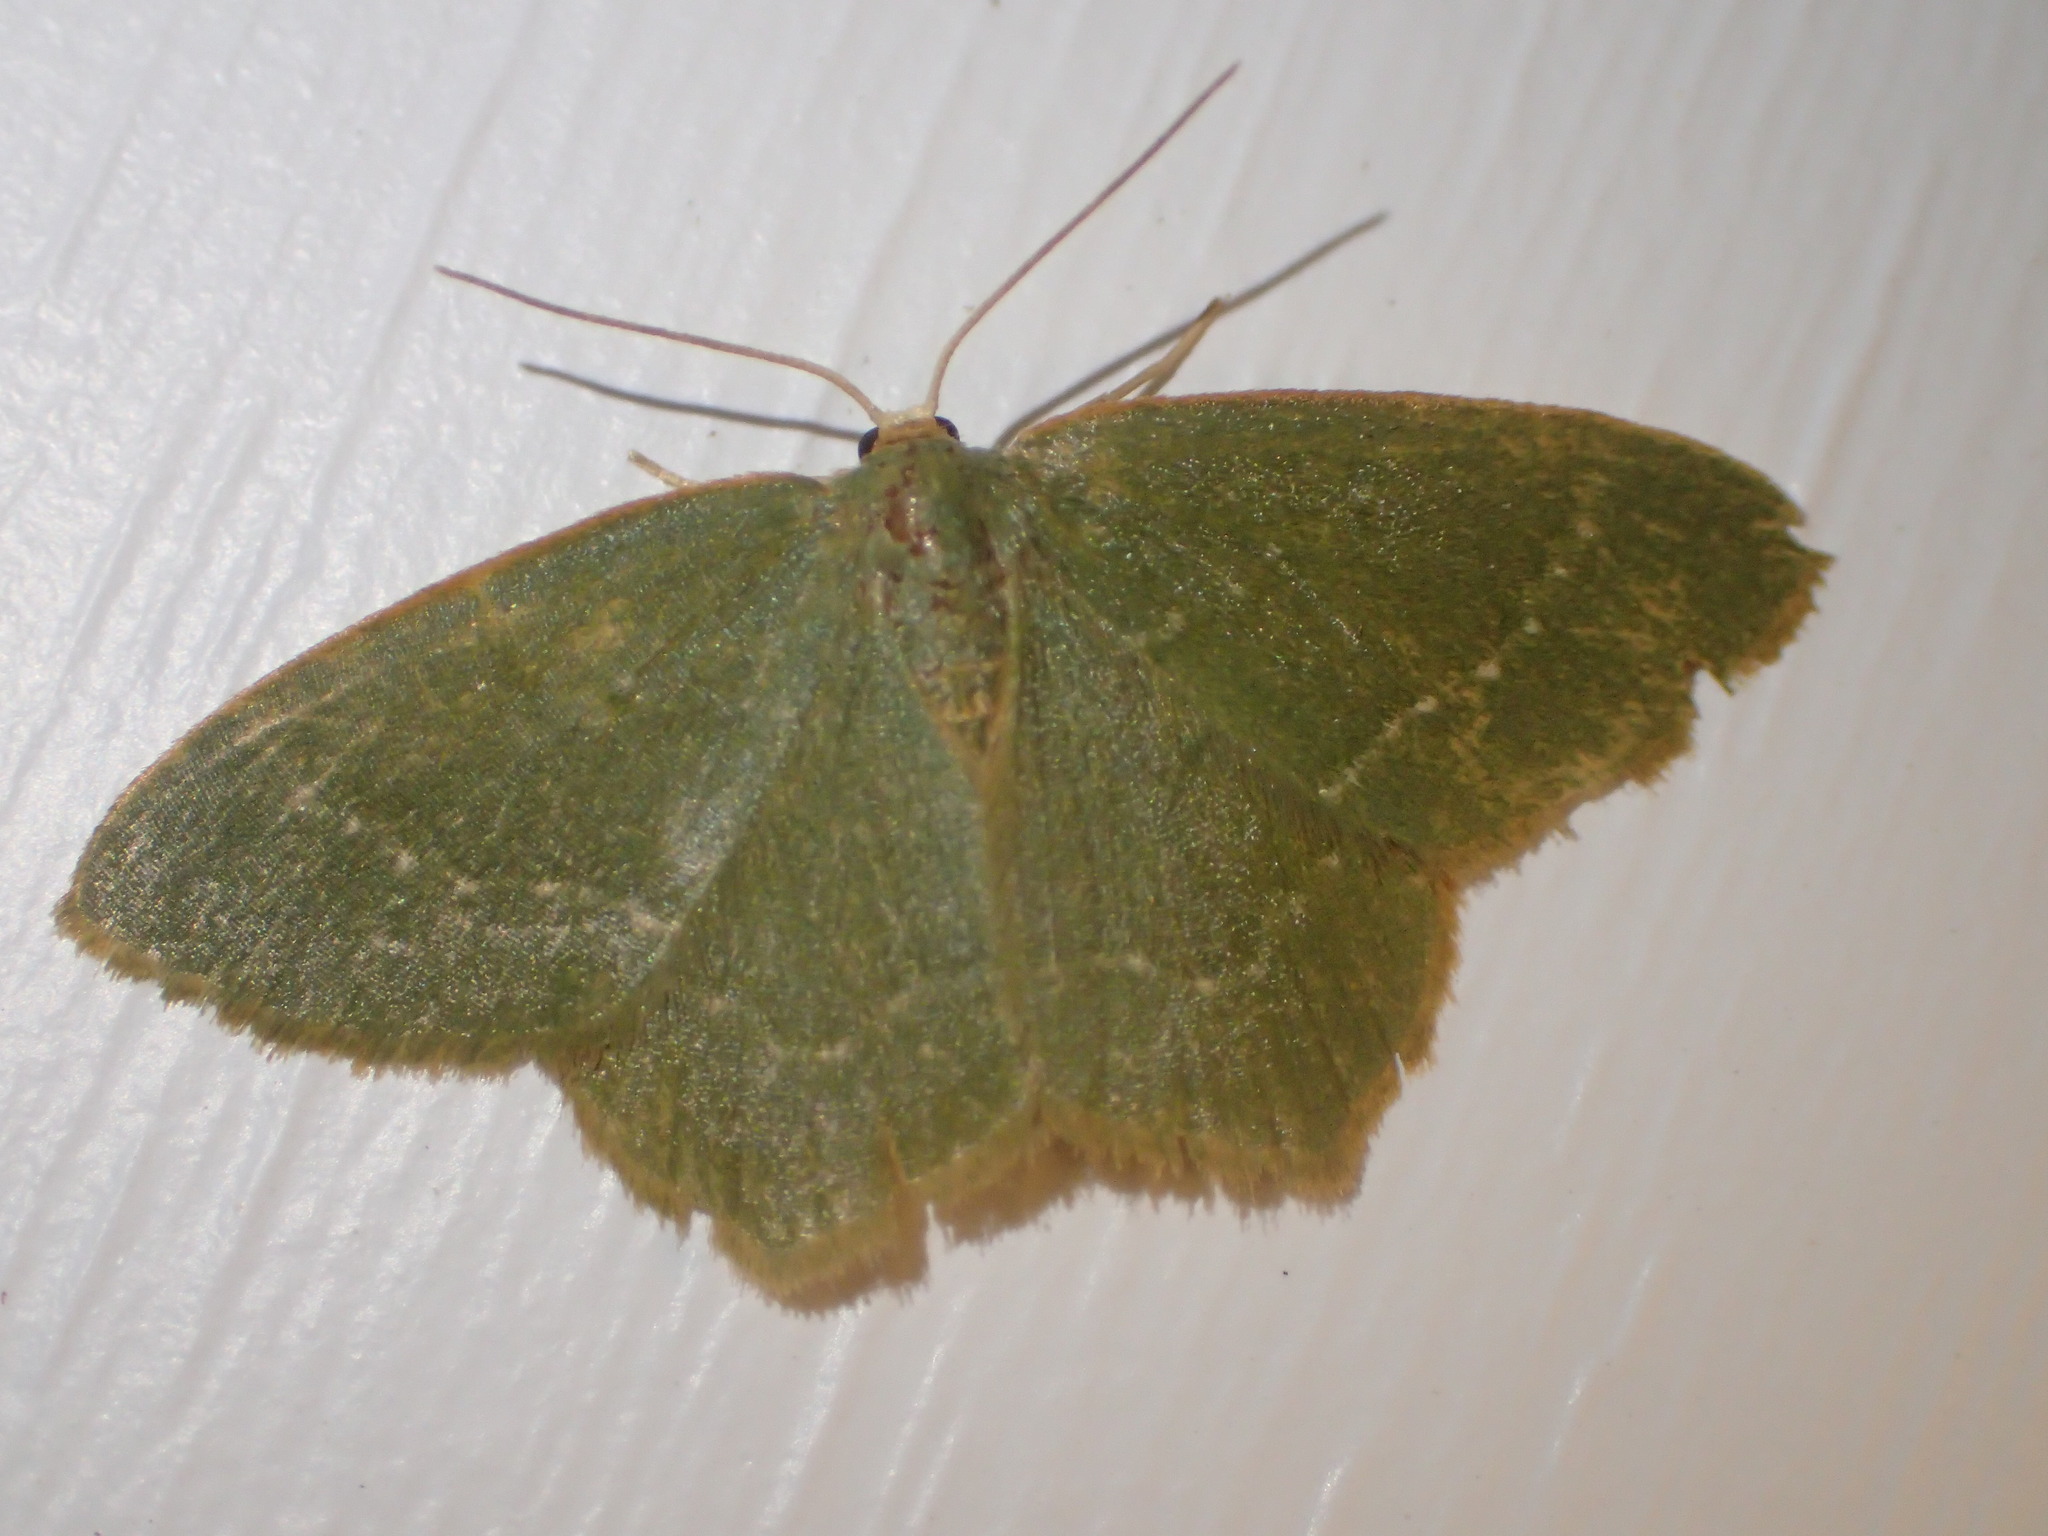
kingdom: Animalia
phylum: Arthropoda
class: Insecta
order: Lepidoptera
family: Geometridae
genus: Thalera
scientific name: Thalera pistasciaria
